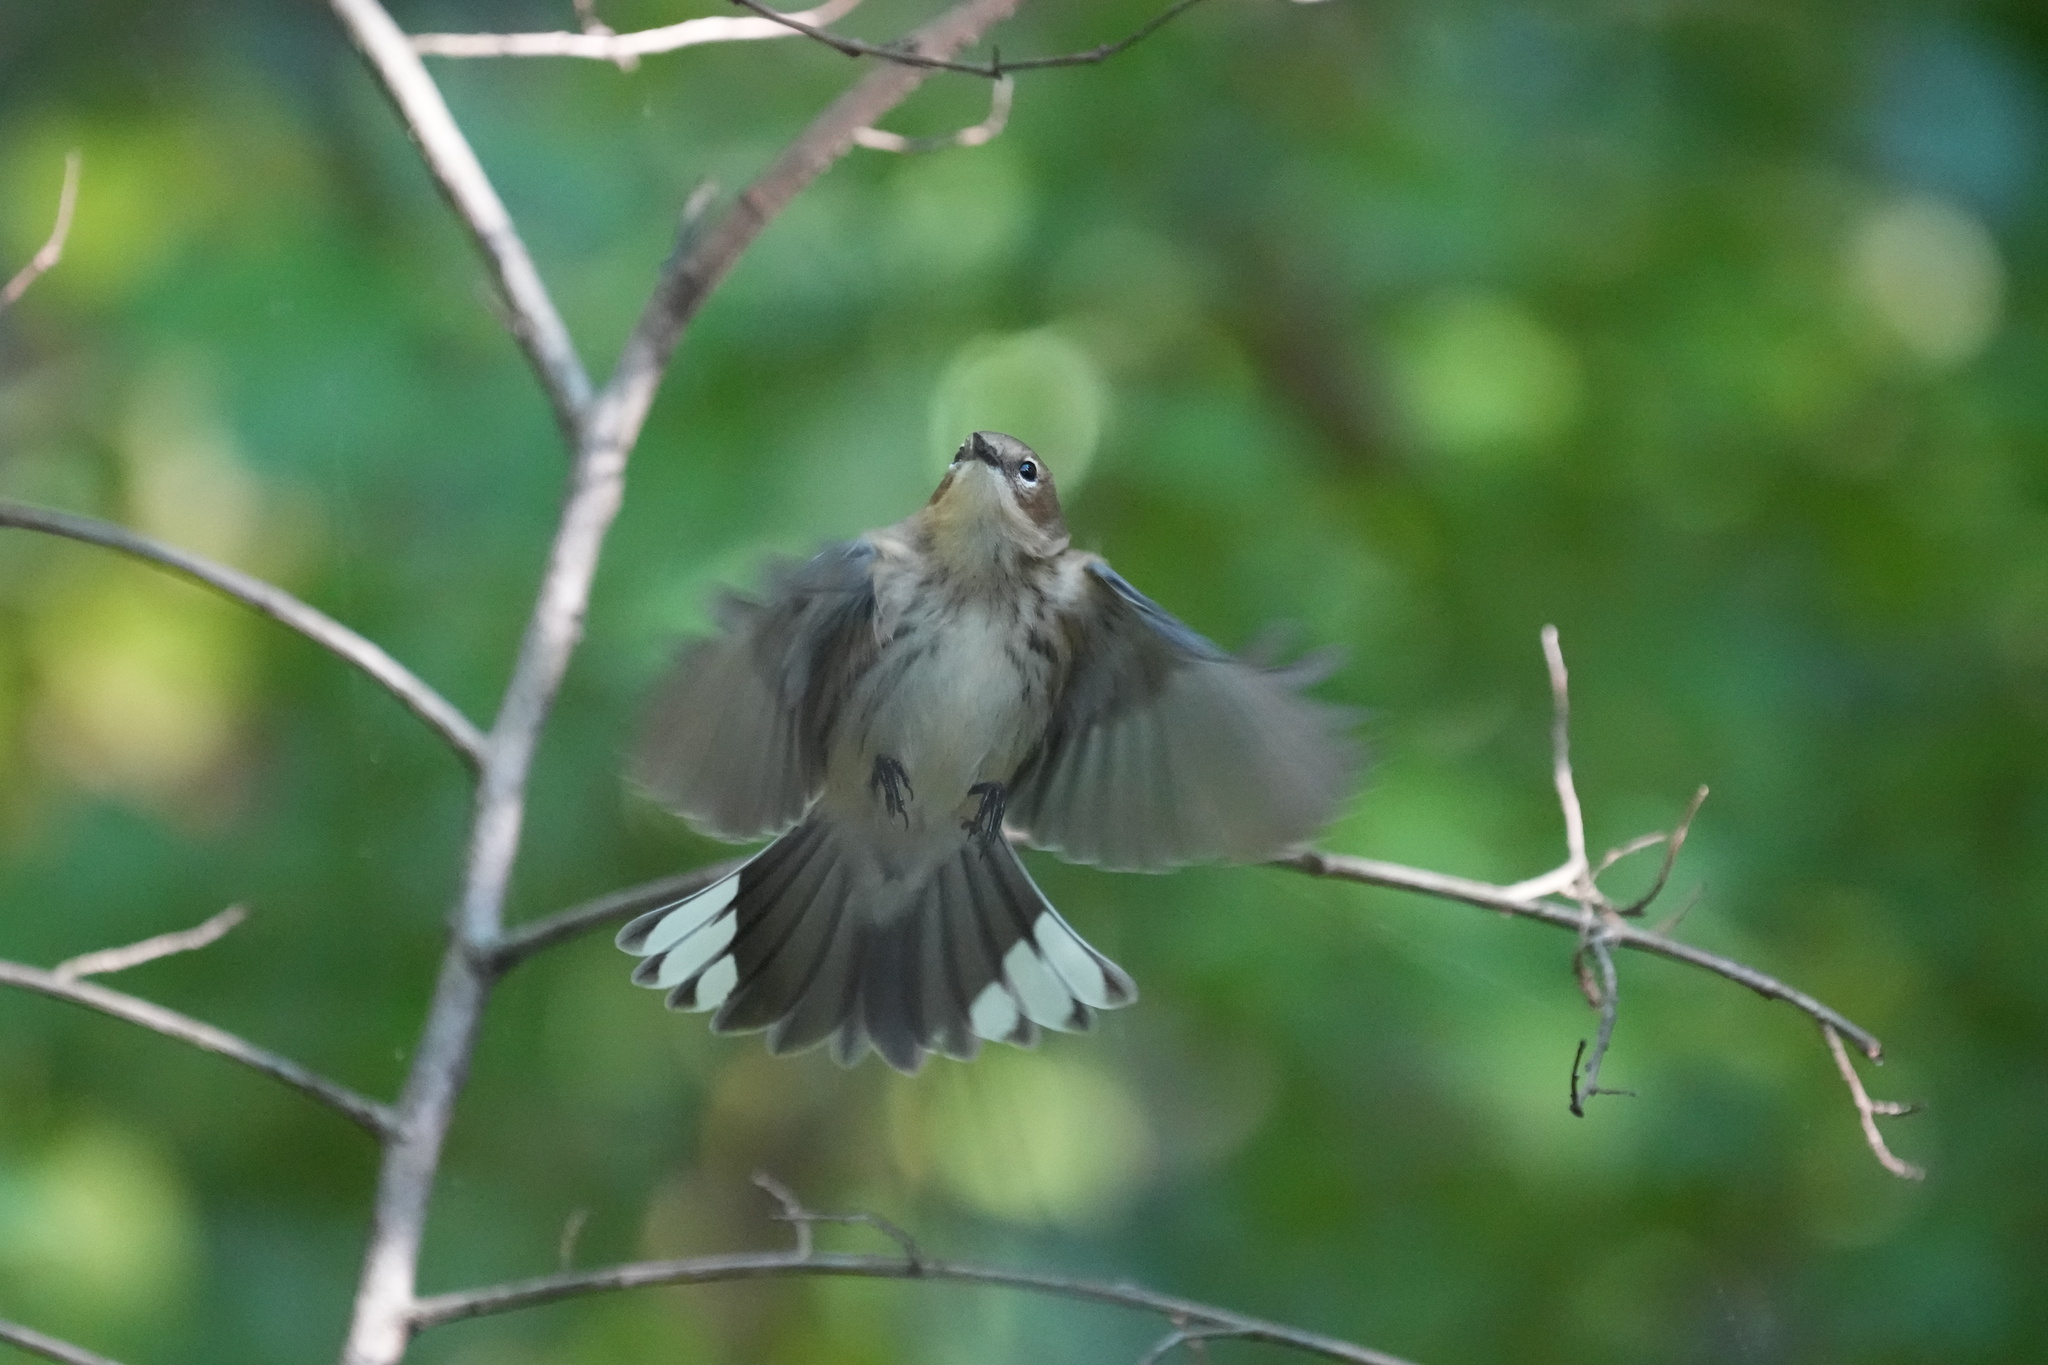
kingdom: Animalia
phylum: Chordata
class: Aves
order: Passeriformes
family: Parulidae
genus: Setophaga
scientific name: Setophaga coronata
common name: Myrtle warbler
